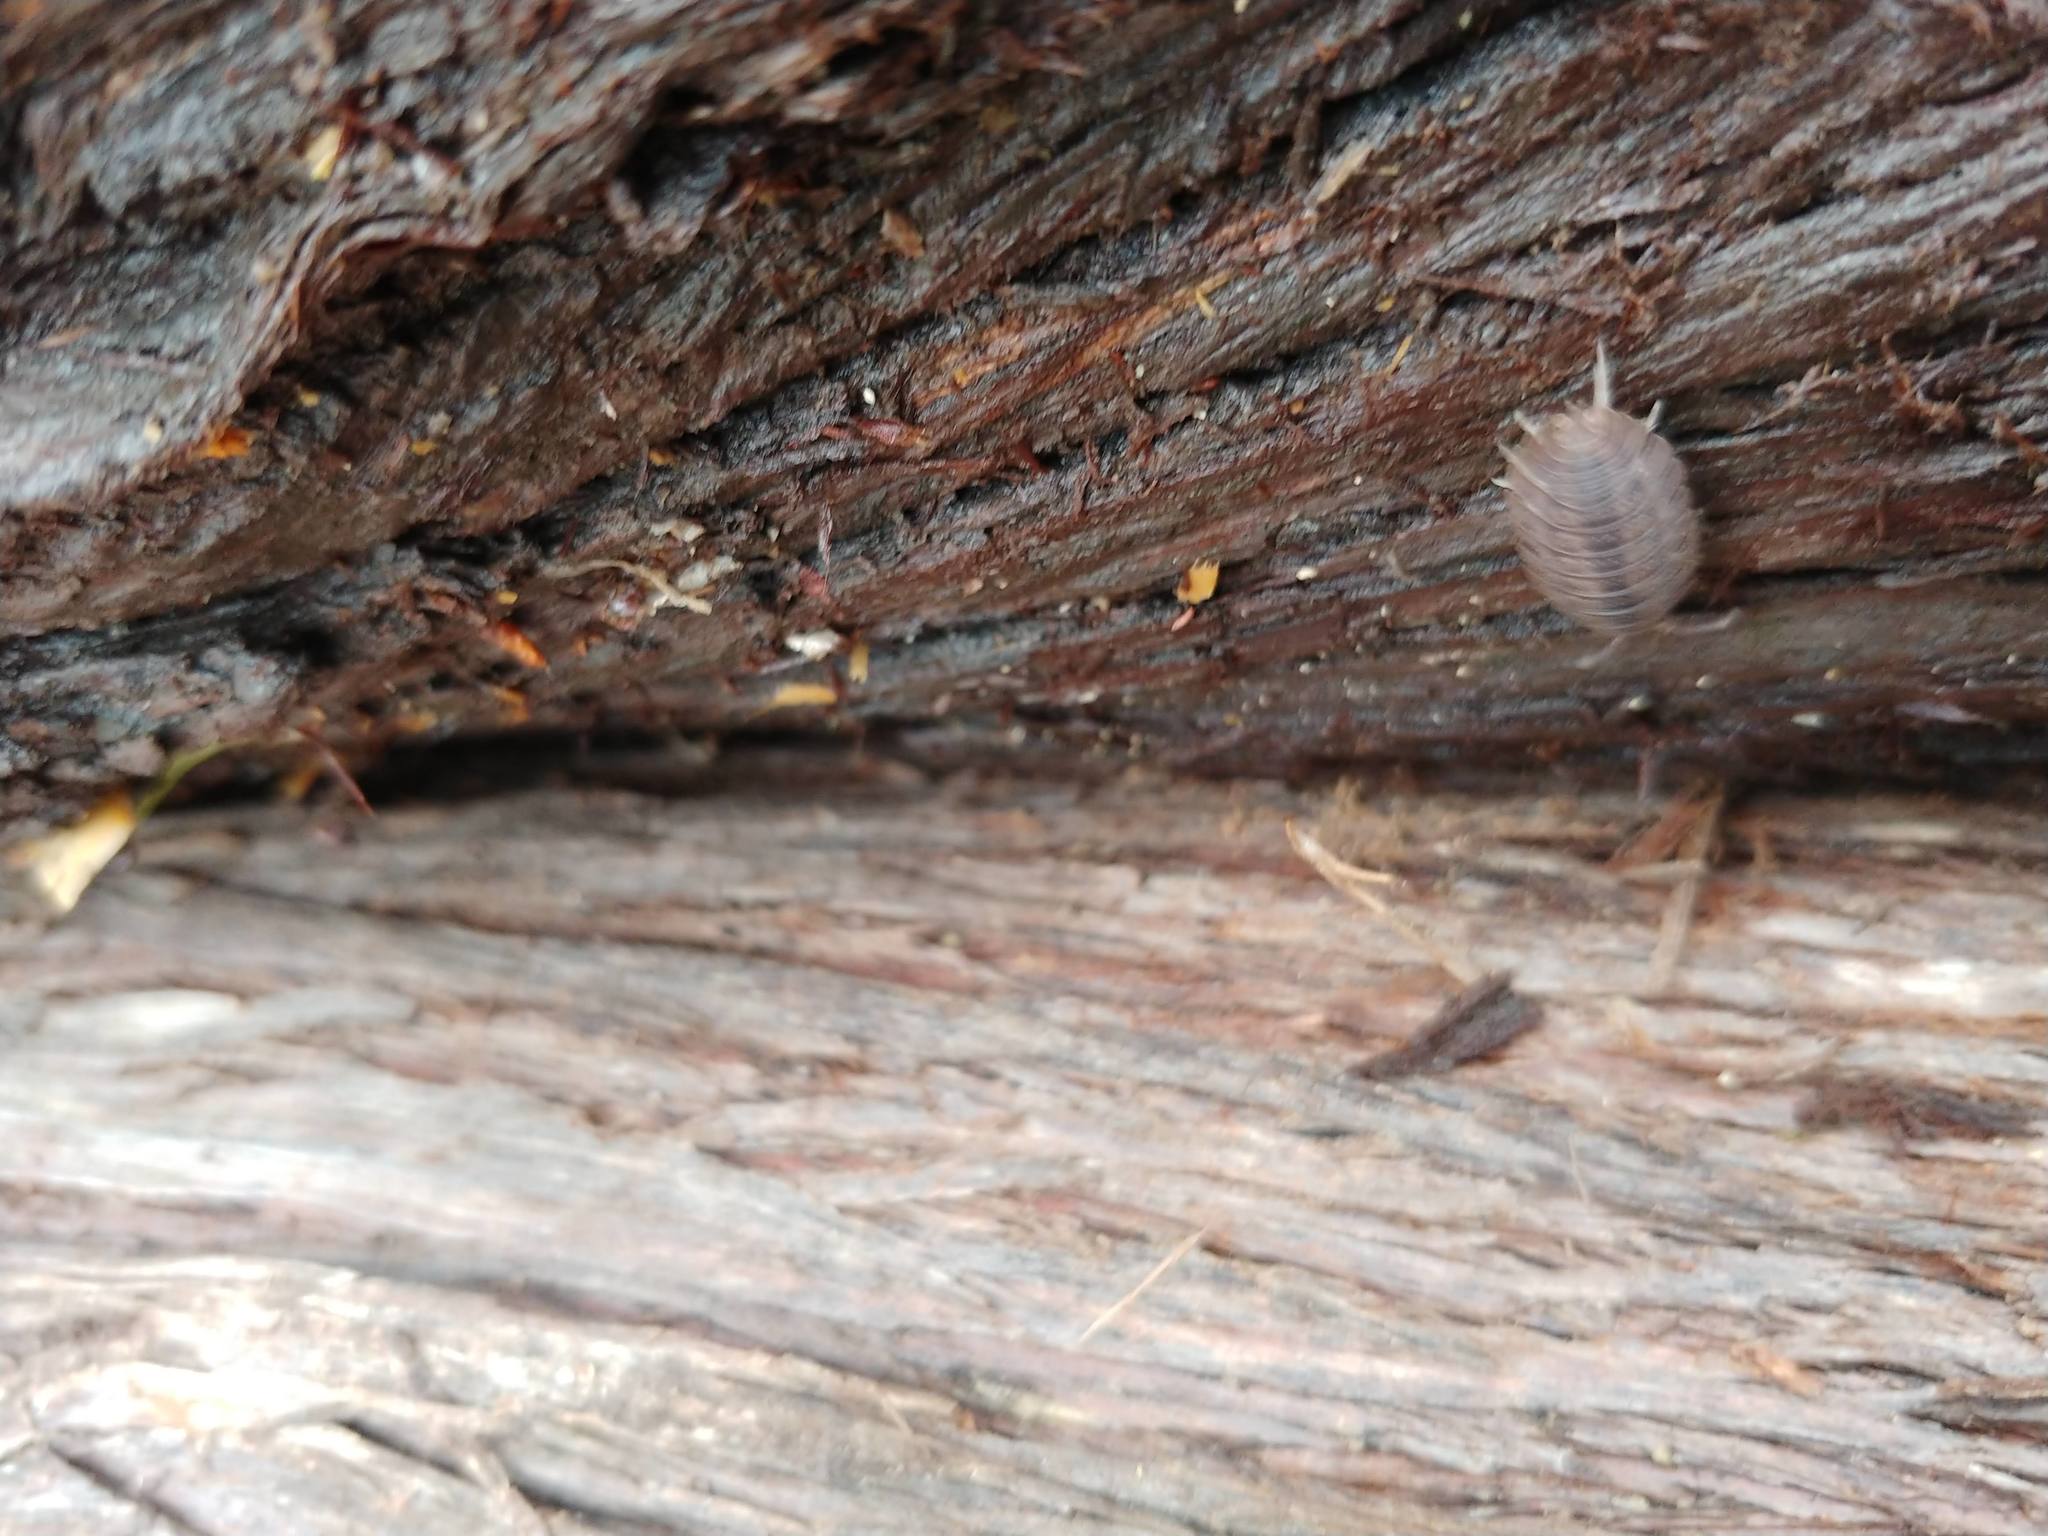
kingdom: Animalia
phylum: Arthropoda
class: Malacostraca
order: Isopoda
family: Porcellionidae
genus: Porcellio
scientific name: Porcellio dilatatus
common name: Isopod
